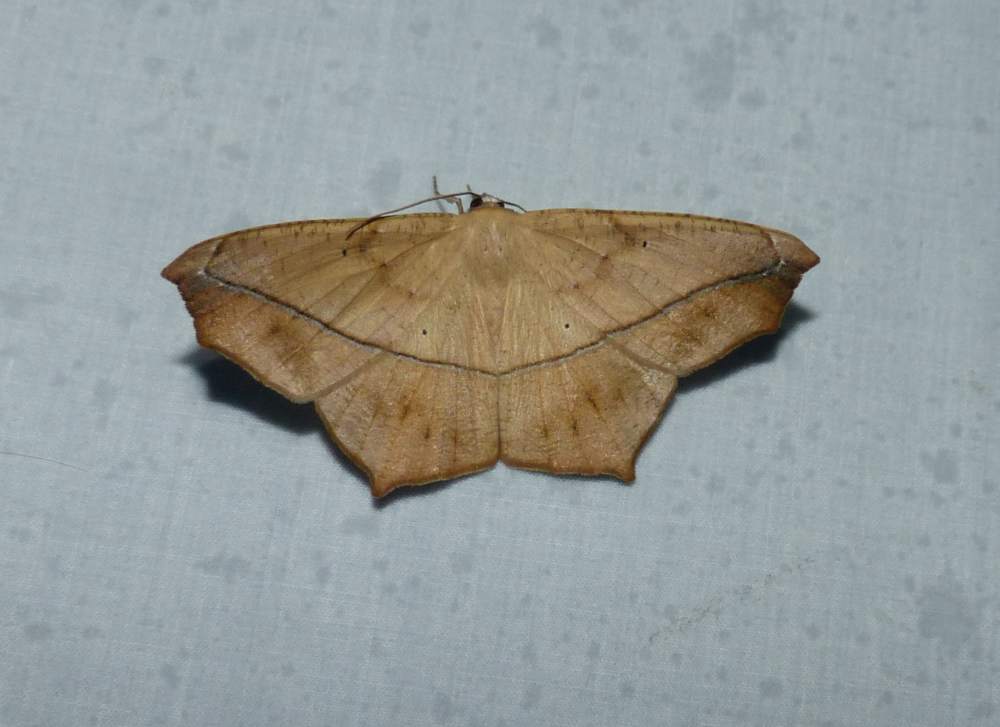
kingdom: Animalia
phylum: Arthropoda
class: Insecta
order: Lepidoptera
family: Geometridae
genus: Prochoerodes
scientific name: Prochoerodes lineola
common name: Large maple spanworm
